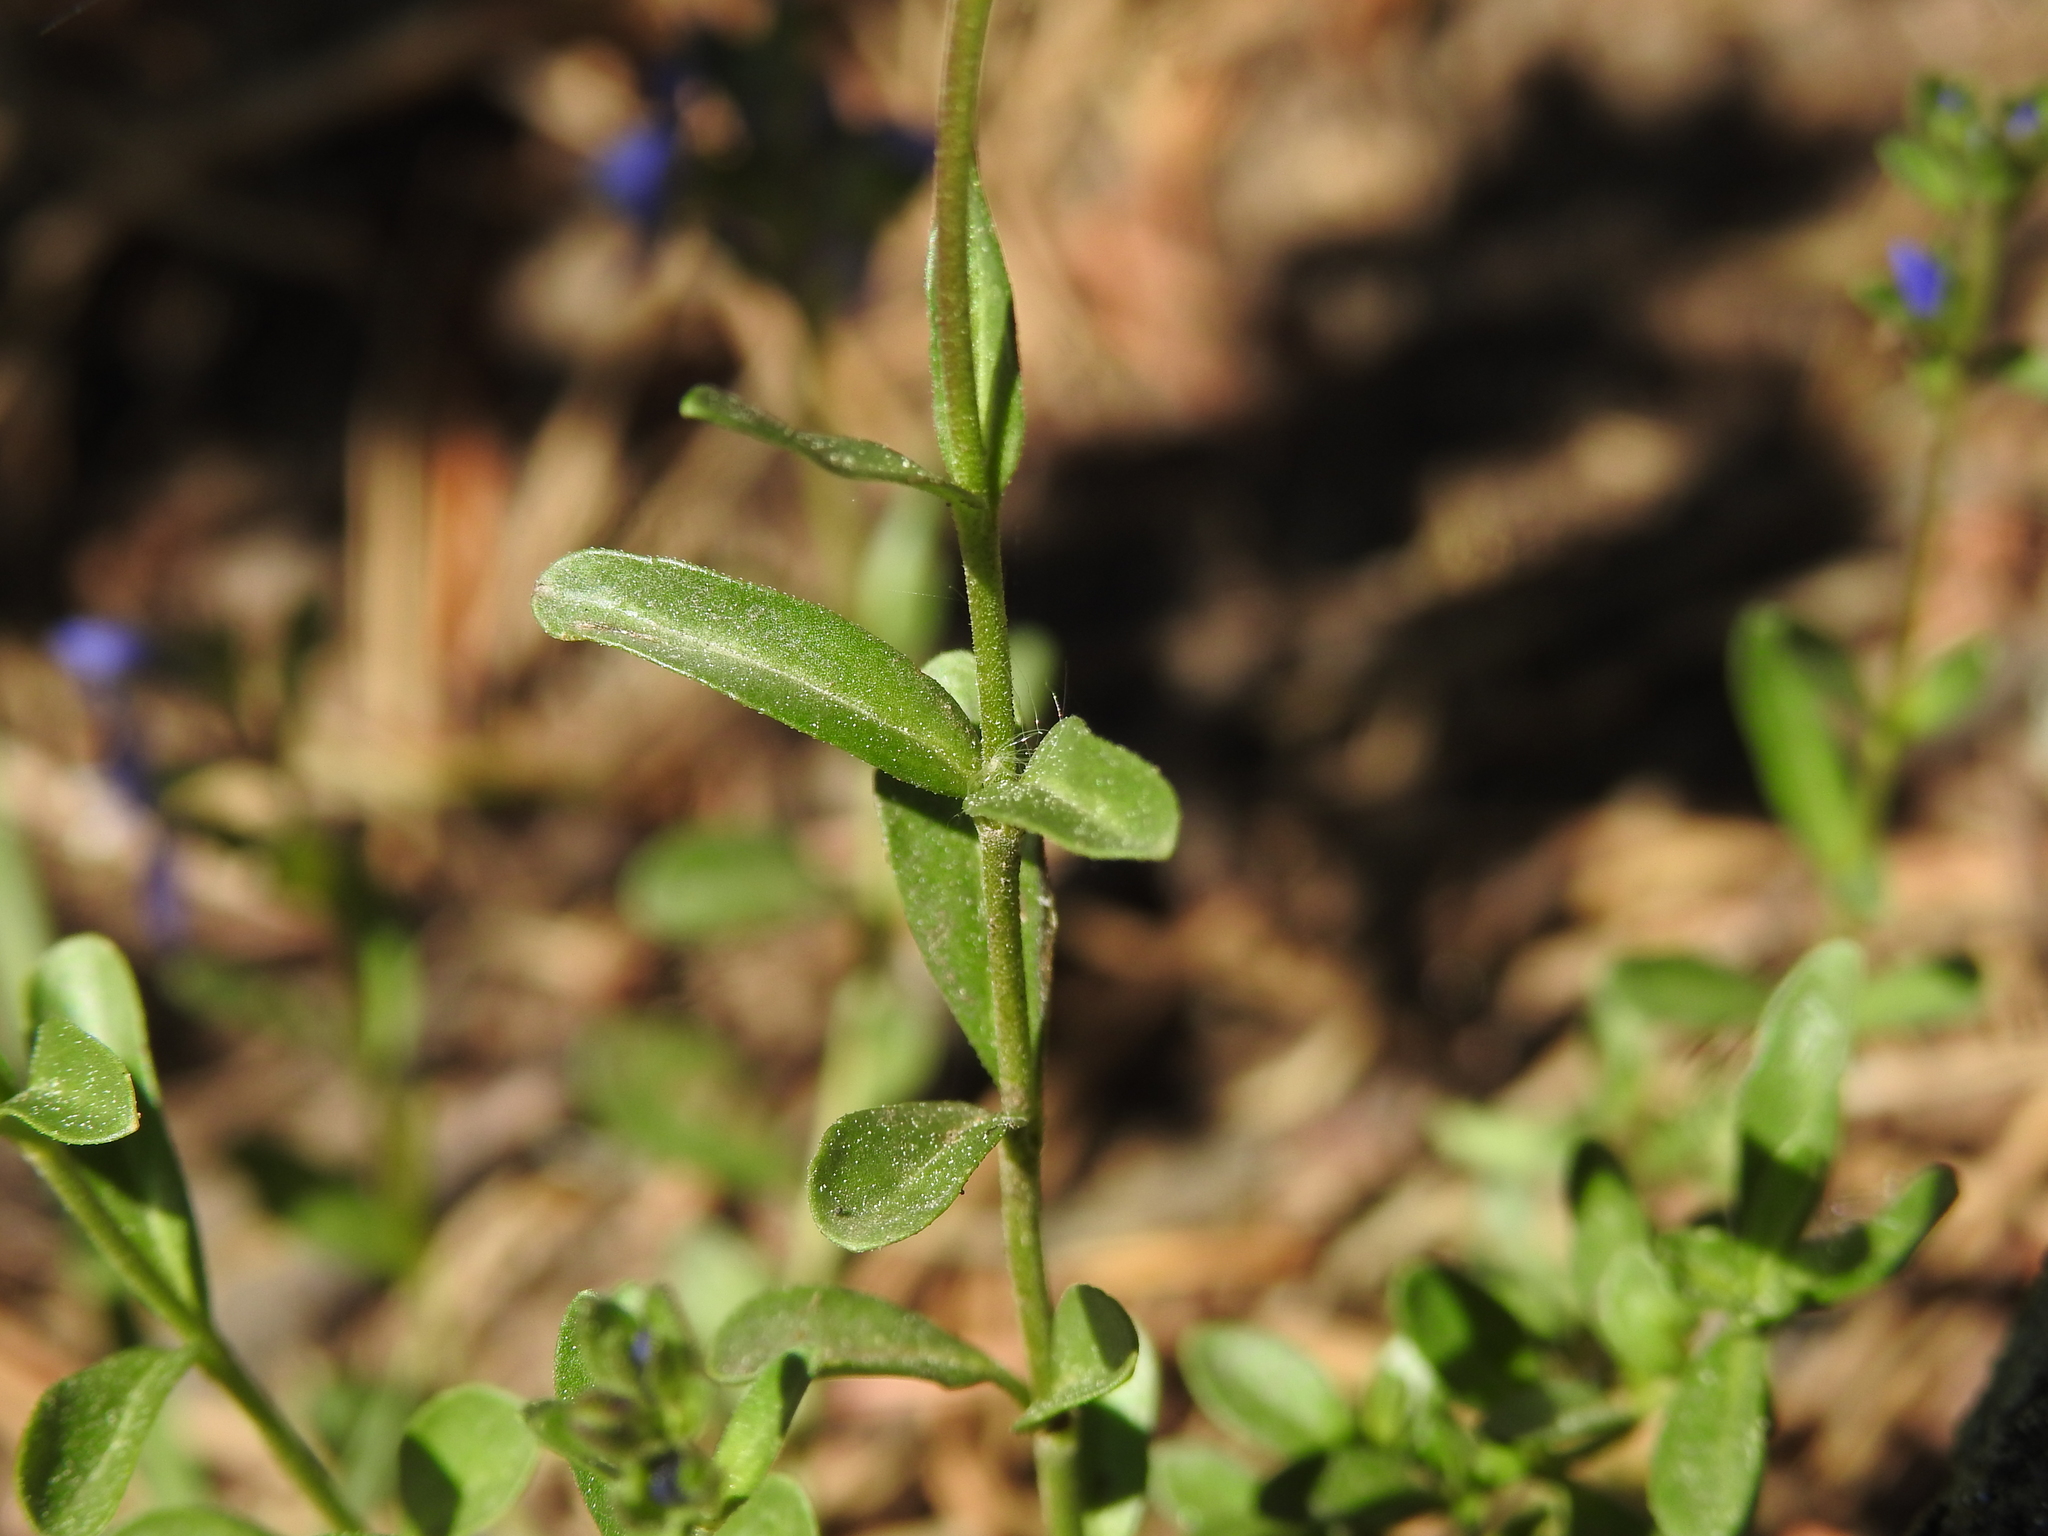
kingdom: Plantae
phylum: Tracheophyta
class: Magnoliopsida
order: Lamiales
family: Plantaginaceae
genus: Veronica
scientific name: Veronica fruticans
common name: Rock speedwell
